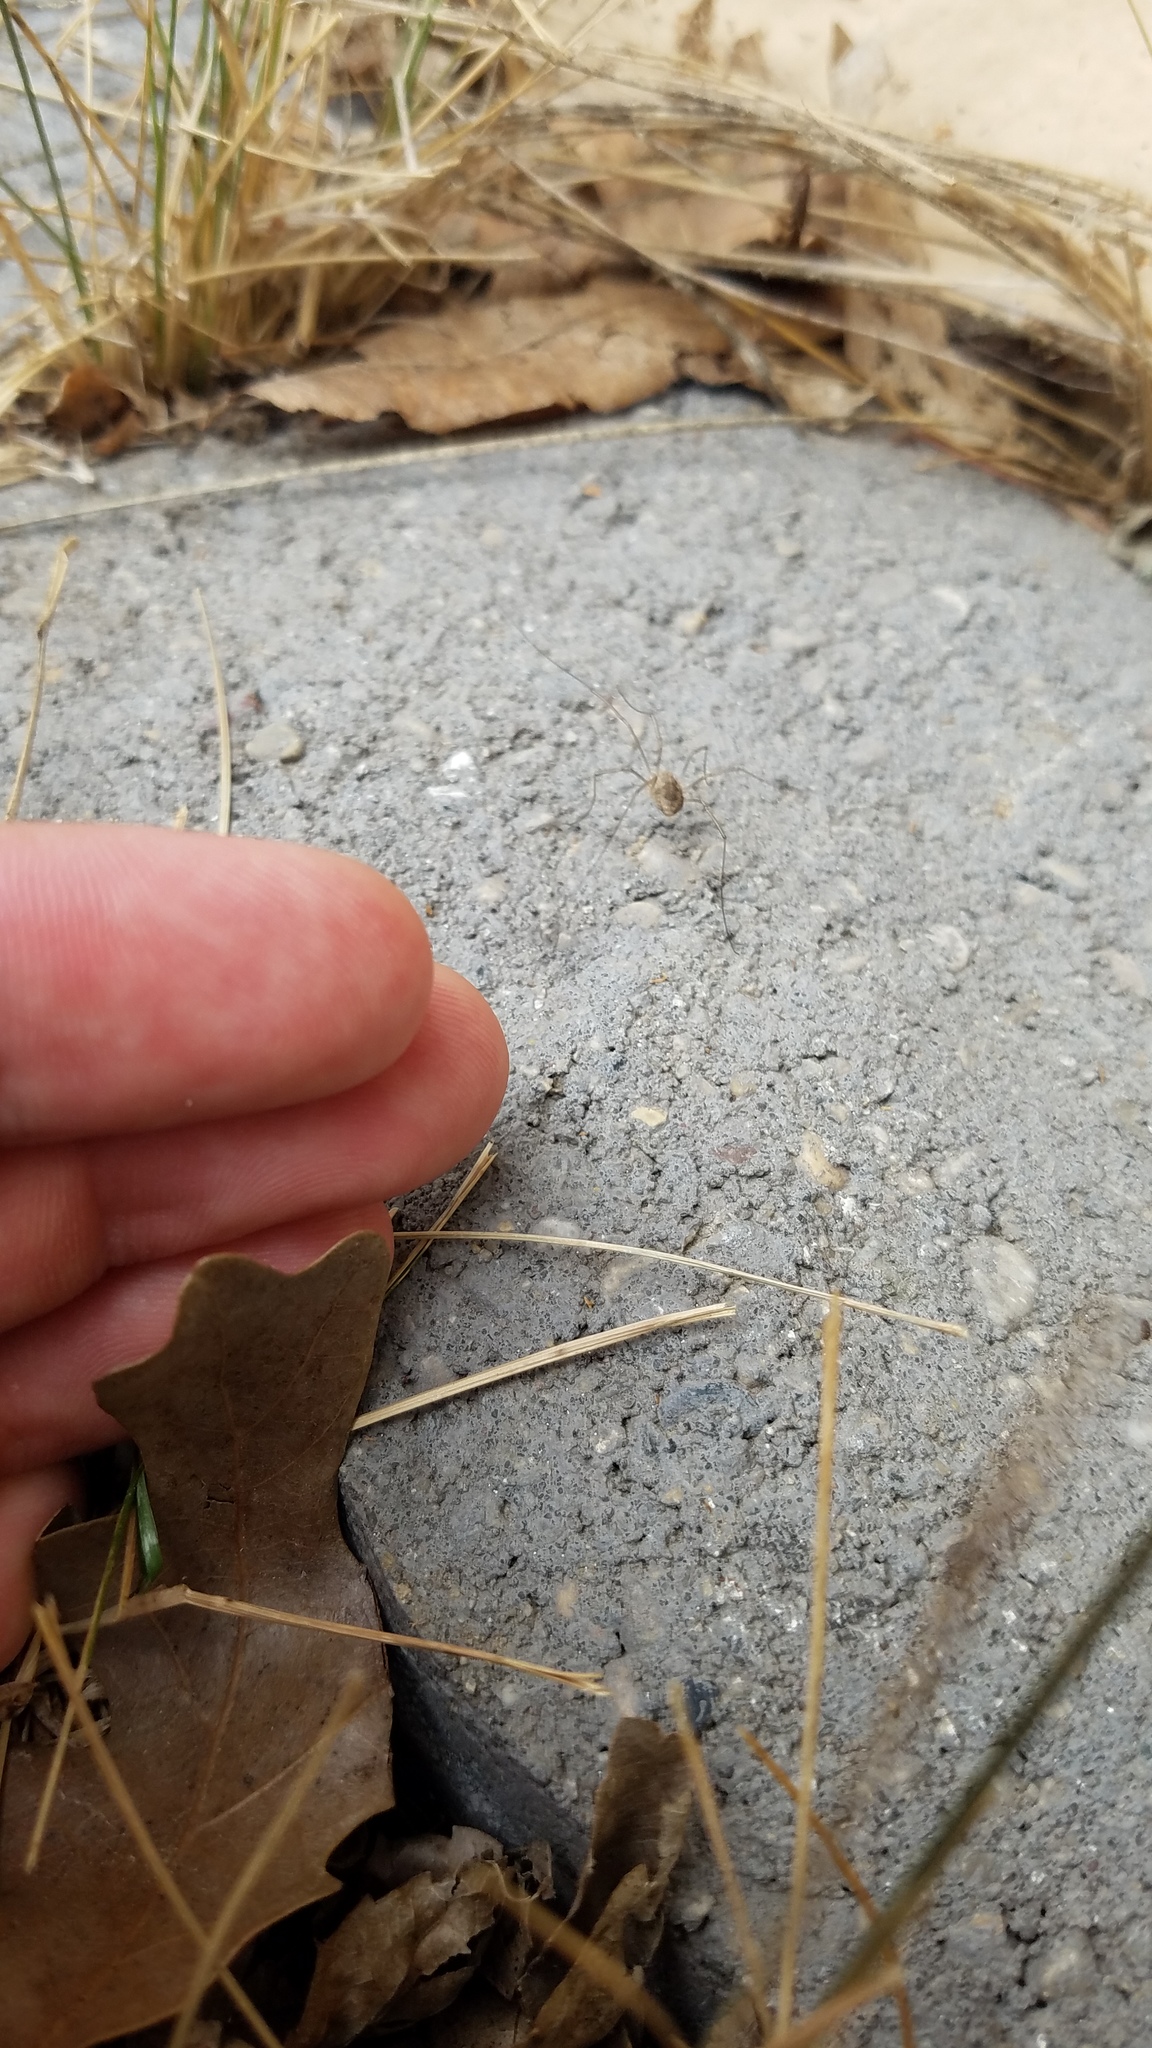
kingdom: Animalia
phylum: Arthropoda
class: Arachnida
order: Opiliones
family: Phalangiidae
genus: Phalangium
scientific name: Phalangium opilio
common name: Daddy longleg
